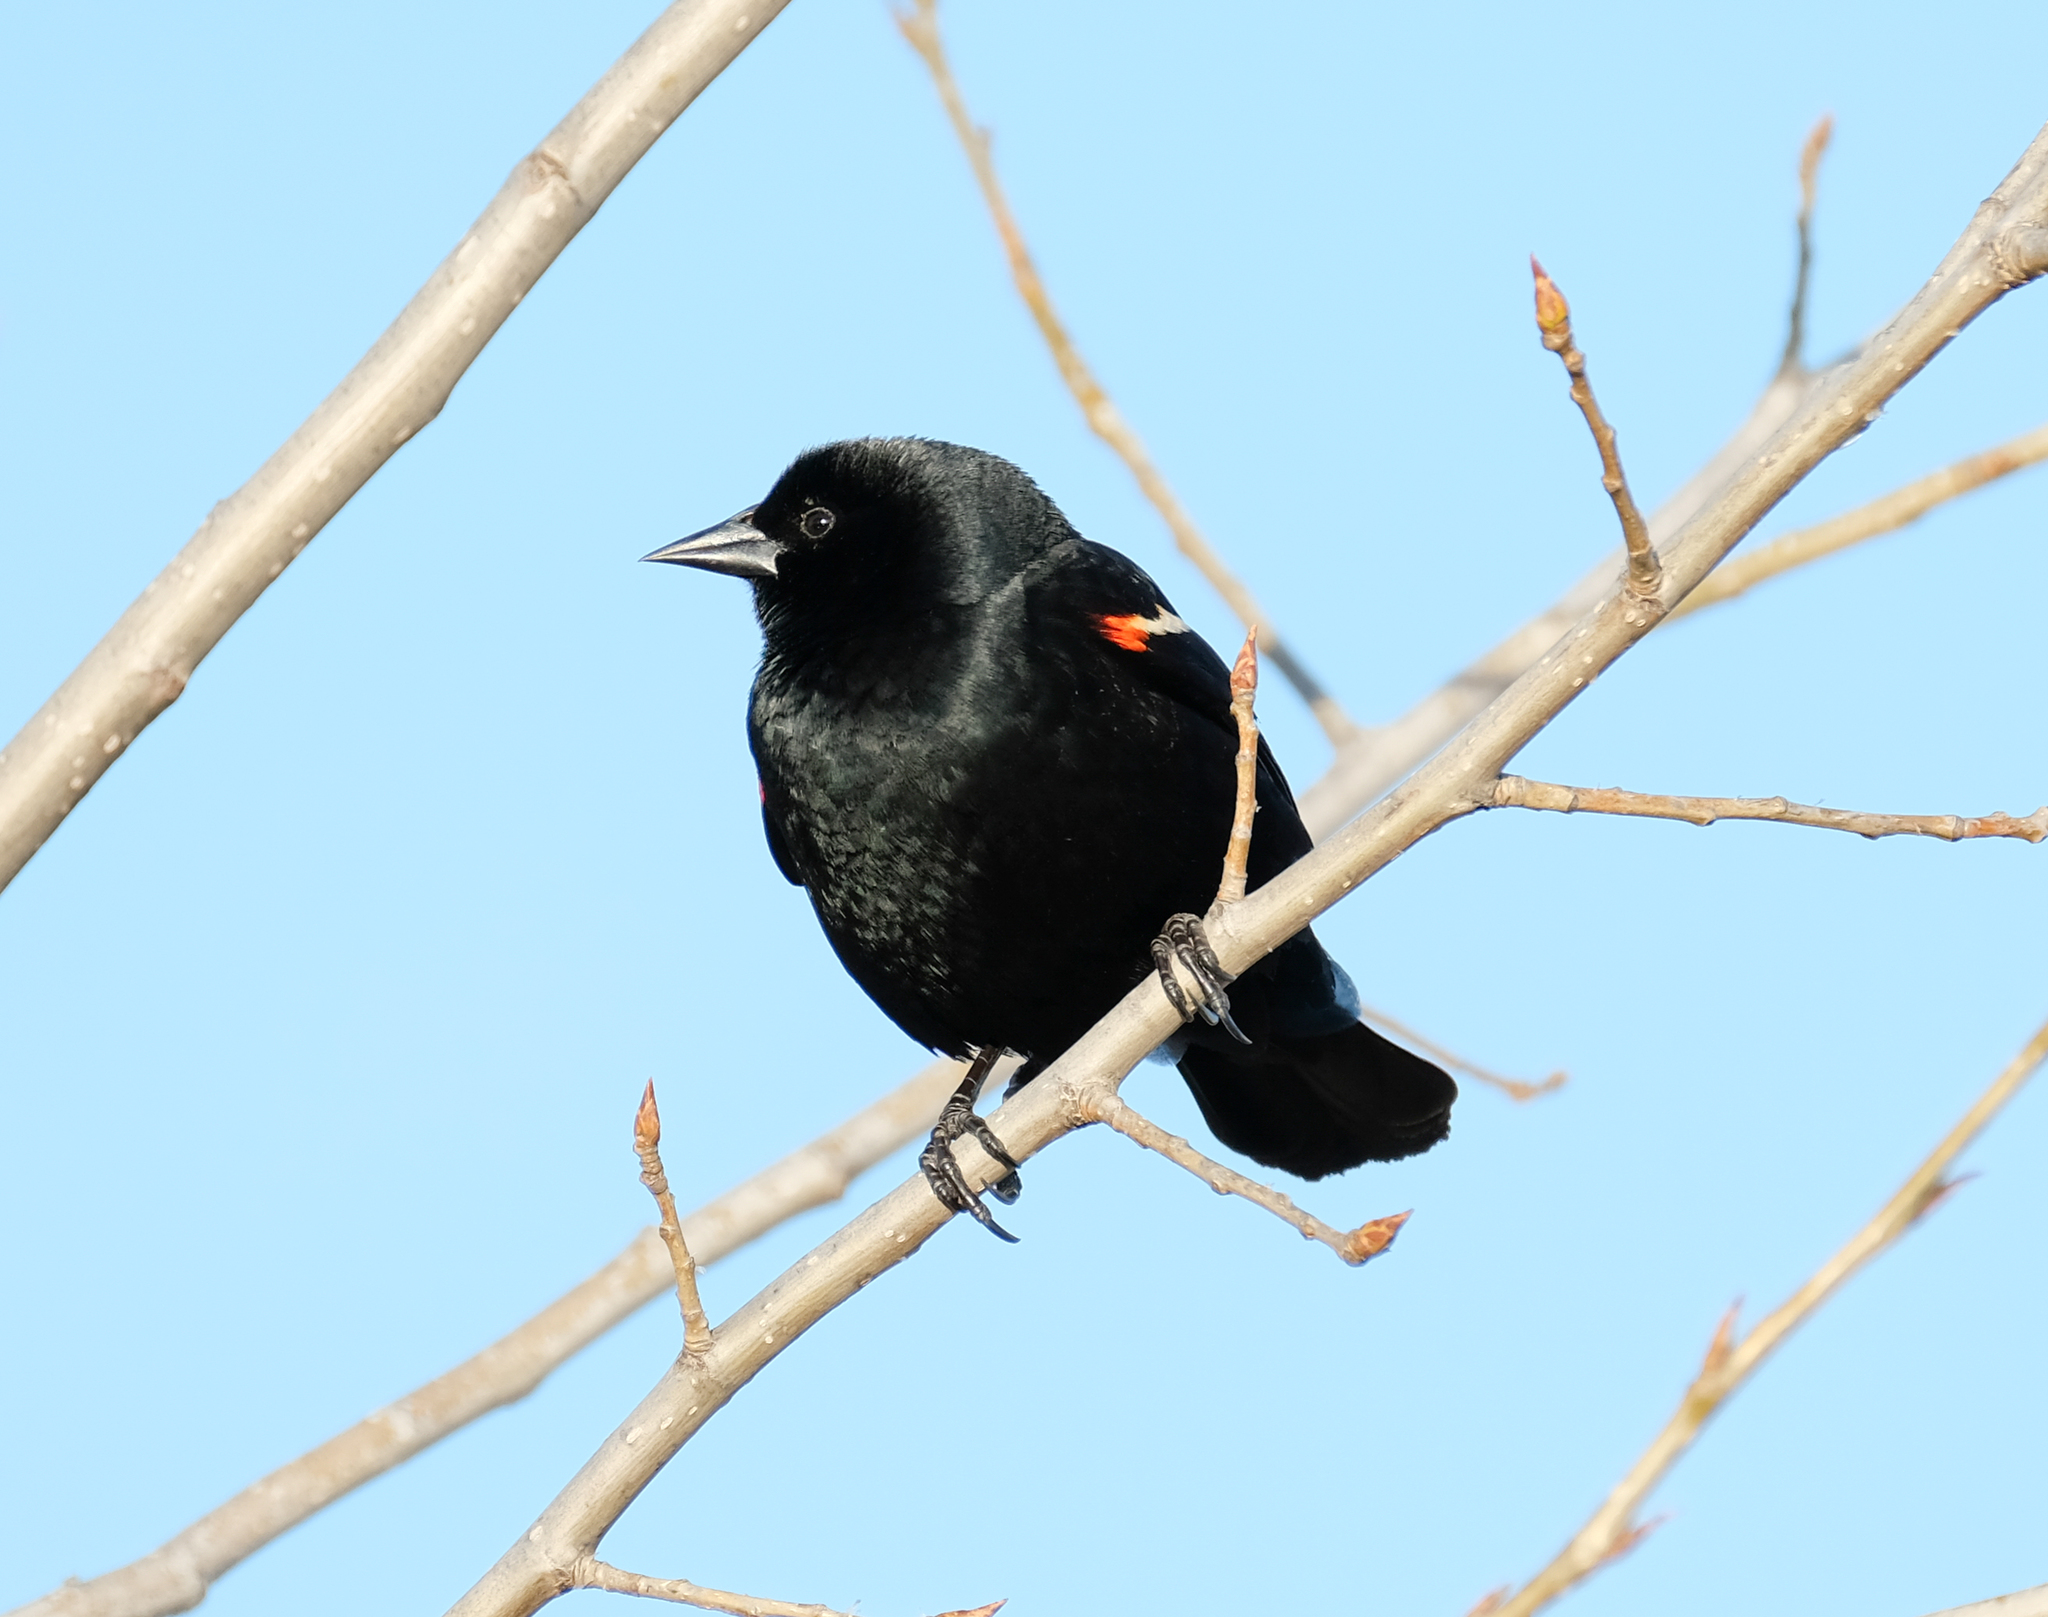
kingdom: Animalia
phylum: Chordata
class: Aves
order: Passeriformes
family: Icteridae
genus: Agelaius
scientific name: Agelaius phoeniceus
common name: Red-winged blackbird
